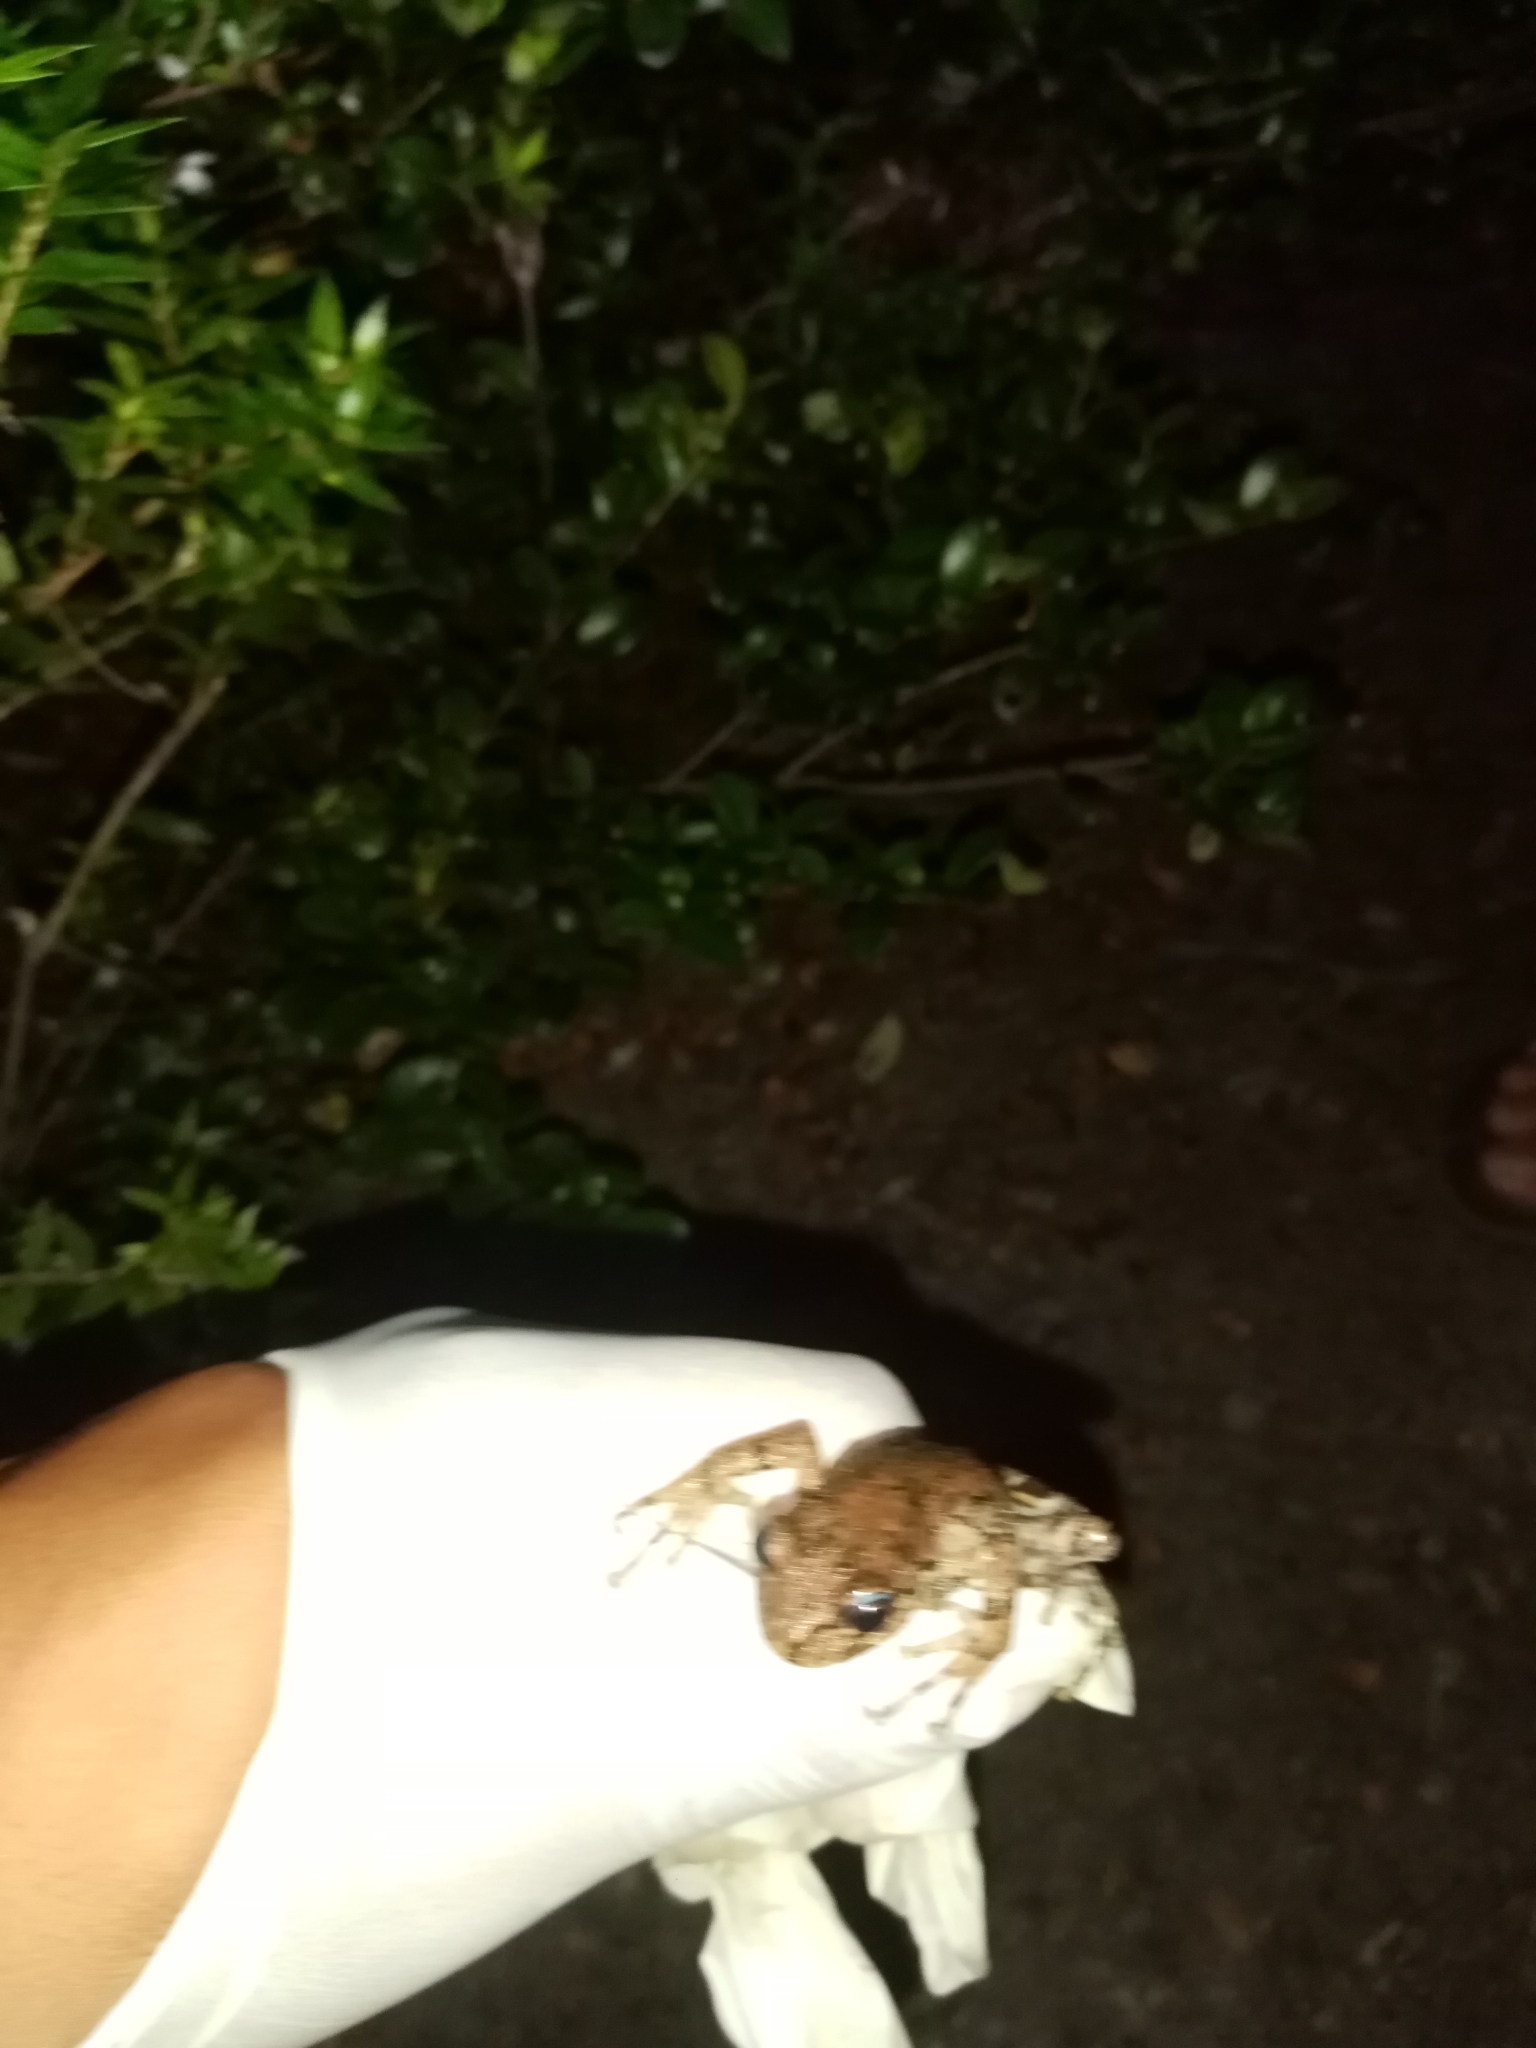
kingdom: Animalia
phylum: Chordata
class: Amphibia
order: Anura
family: Batrachylidae
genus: Batrachyla
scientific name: Batrachyla leptopus
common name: Gray wood frog
